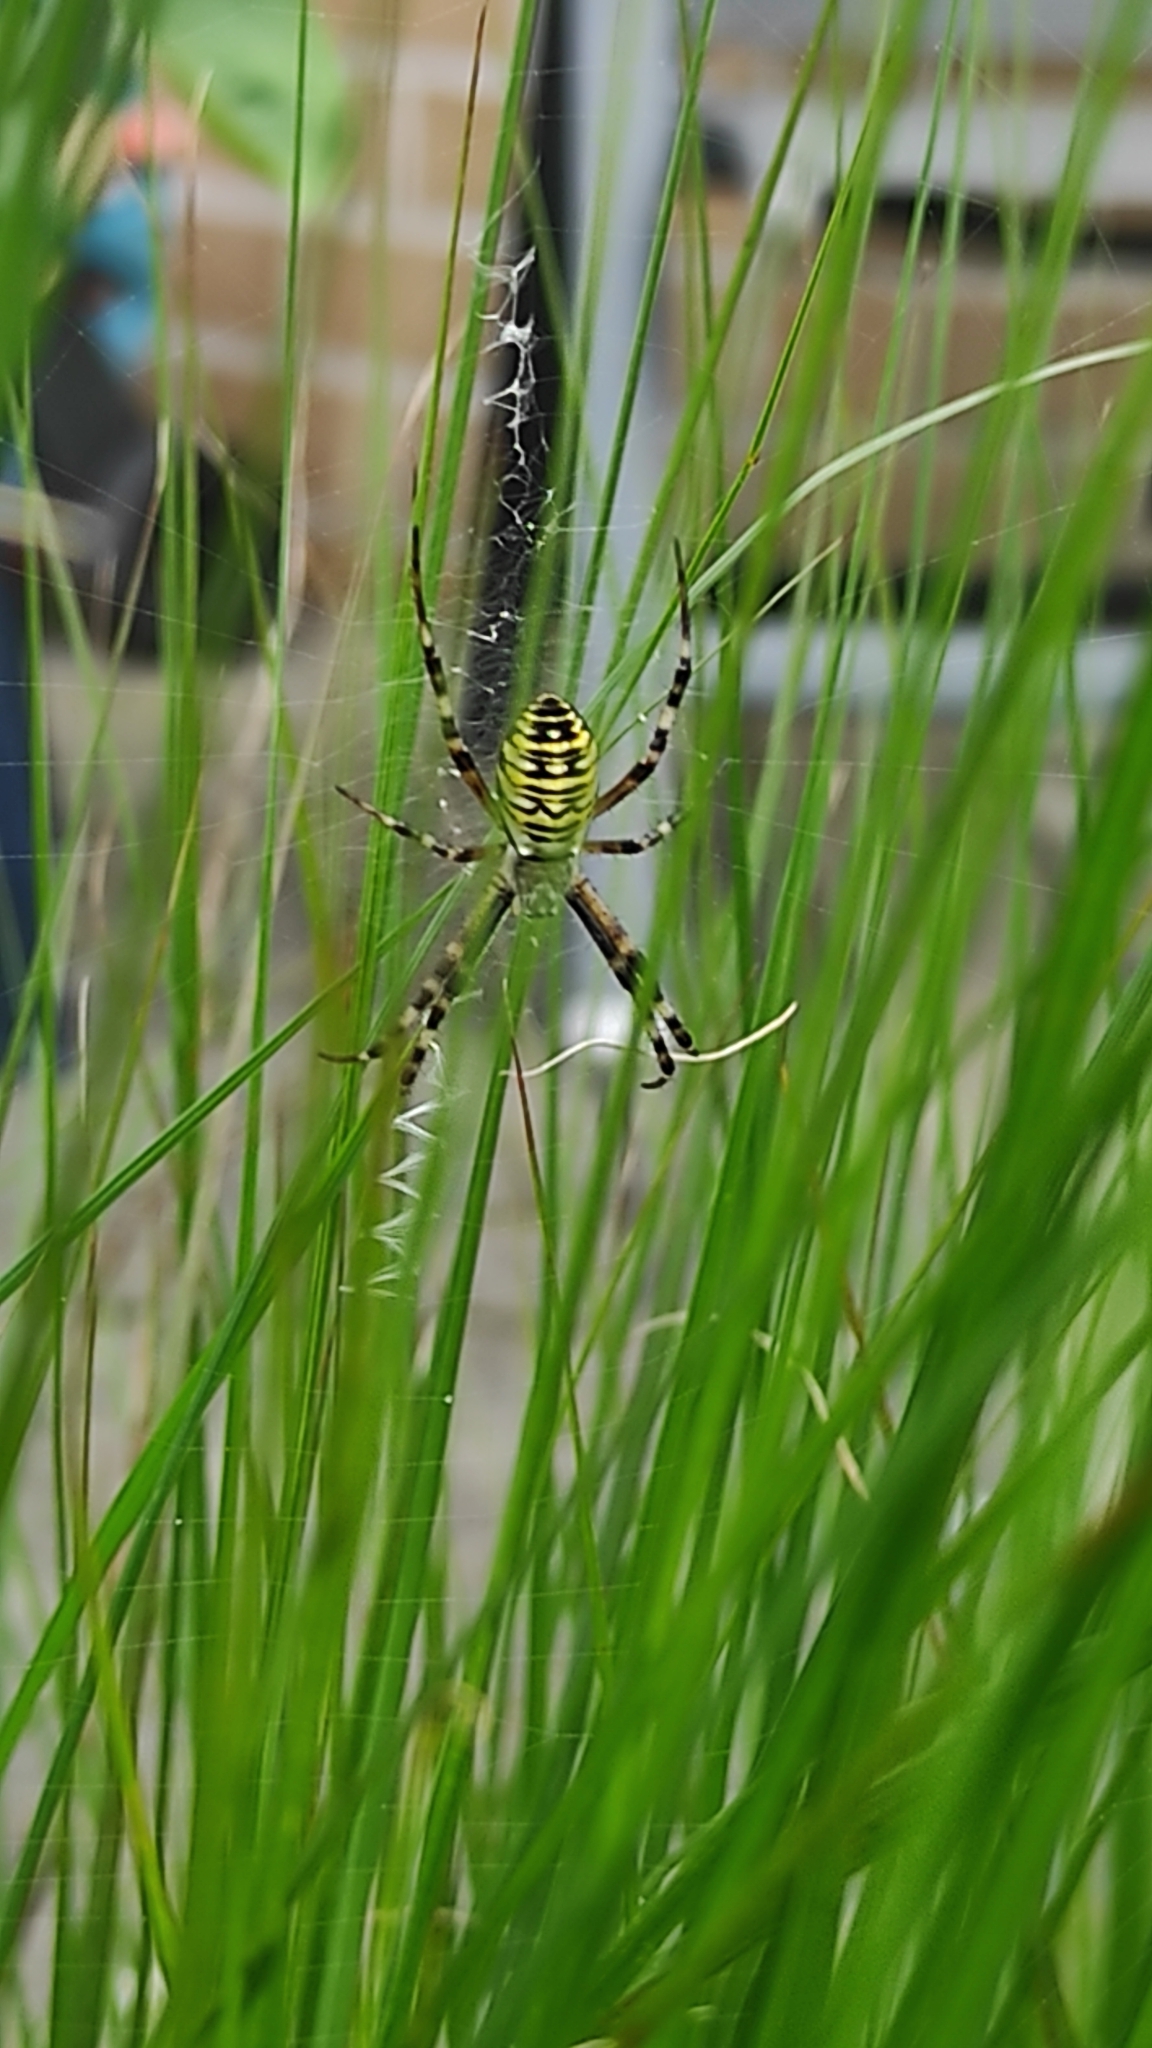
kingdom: Animalia
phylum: Arthropoda
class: Arachnida
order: Araneae
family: Araneidae
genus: Argiope
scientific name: Argiope bruennichi
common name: Wasp spider
